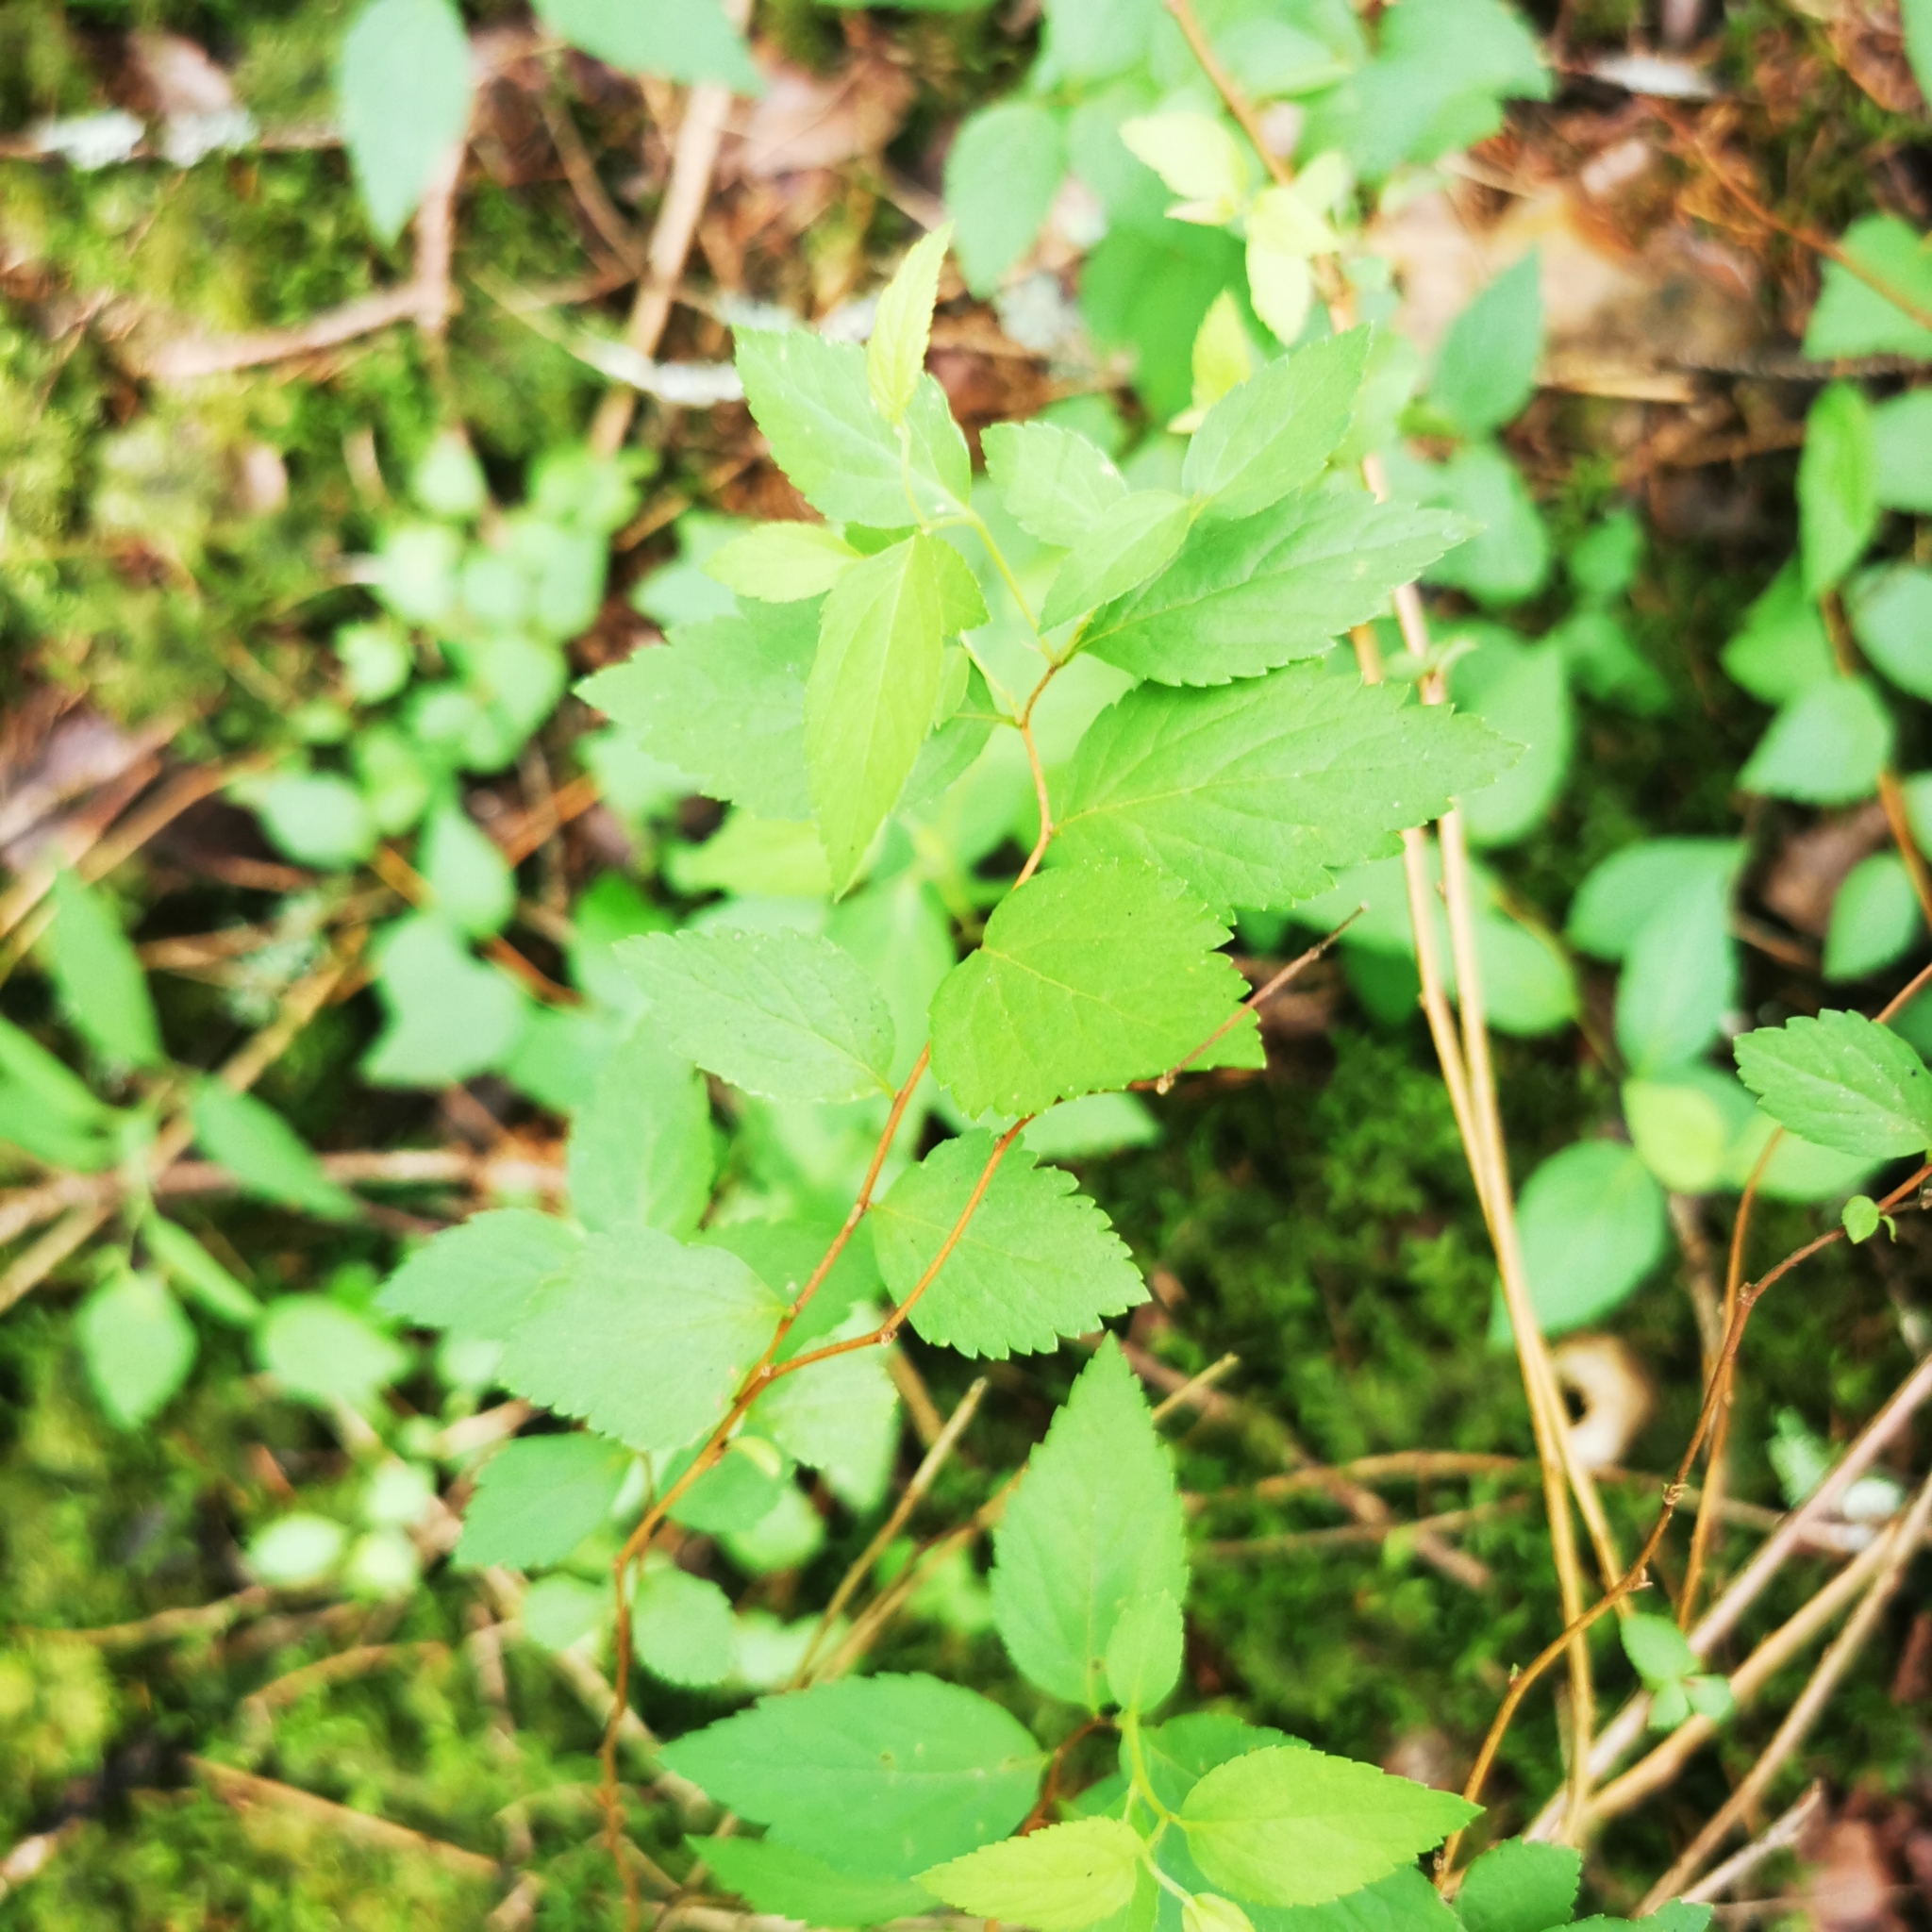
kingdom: Plantae
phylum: Tracheophyta
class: Magnoliopsida
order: Rosales
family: Rosaceae
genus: Spiraea
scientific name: Spiraea japonica
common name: Japanese spiraea
